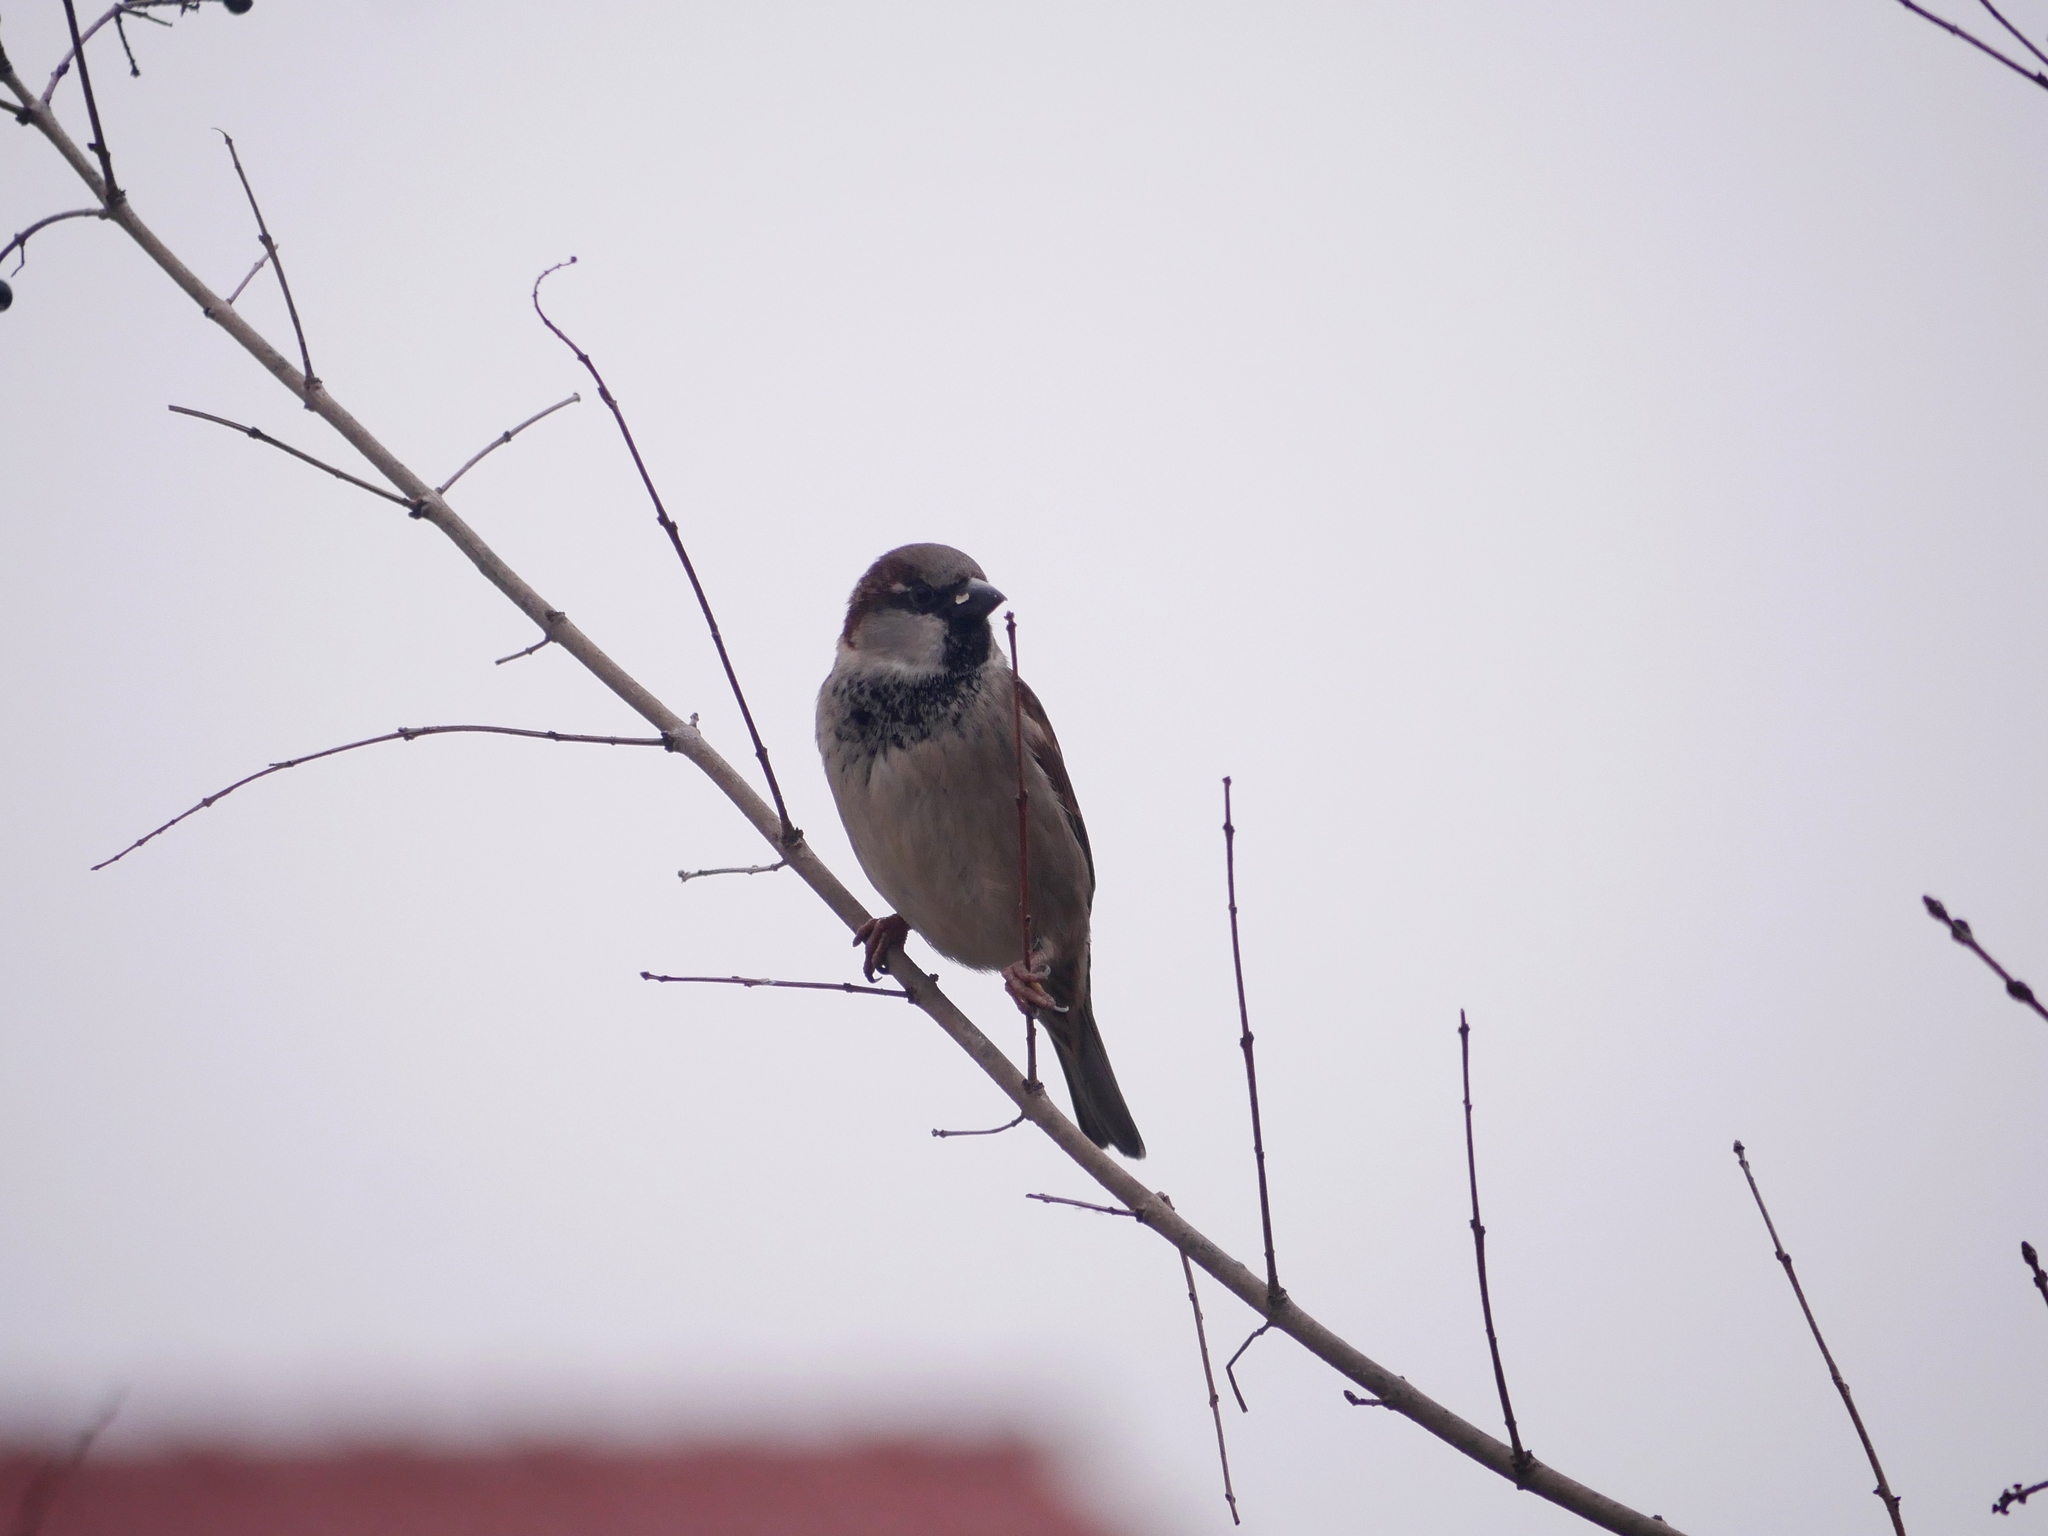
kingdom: Animalia
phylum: Chordata
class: Aves
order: Passeriformes
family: Passeridae
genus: Passer
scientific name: Passer domesticus
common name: House sparrow
